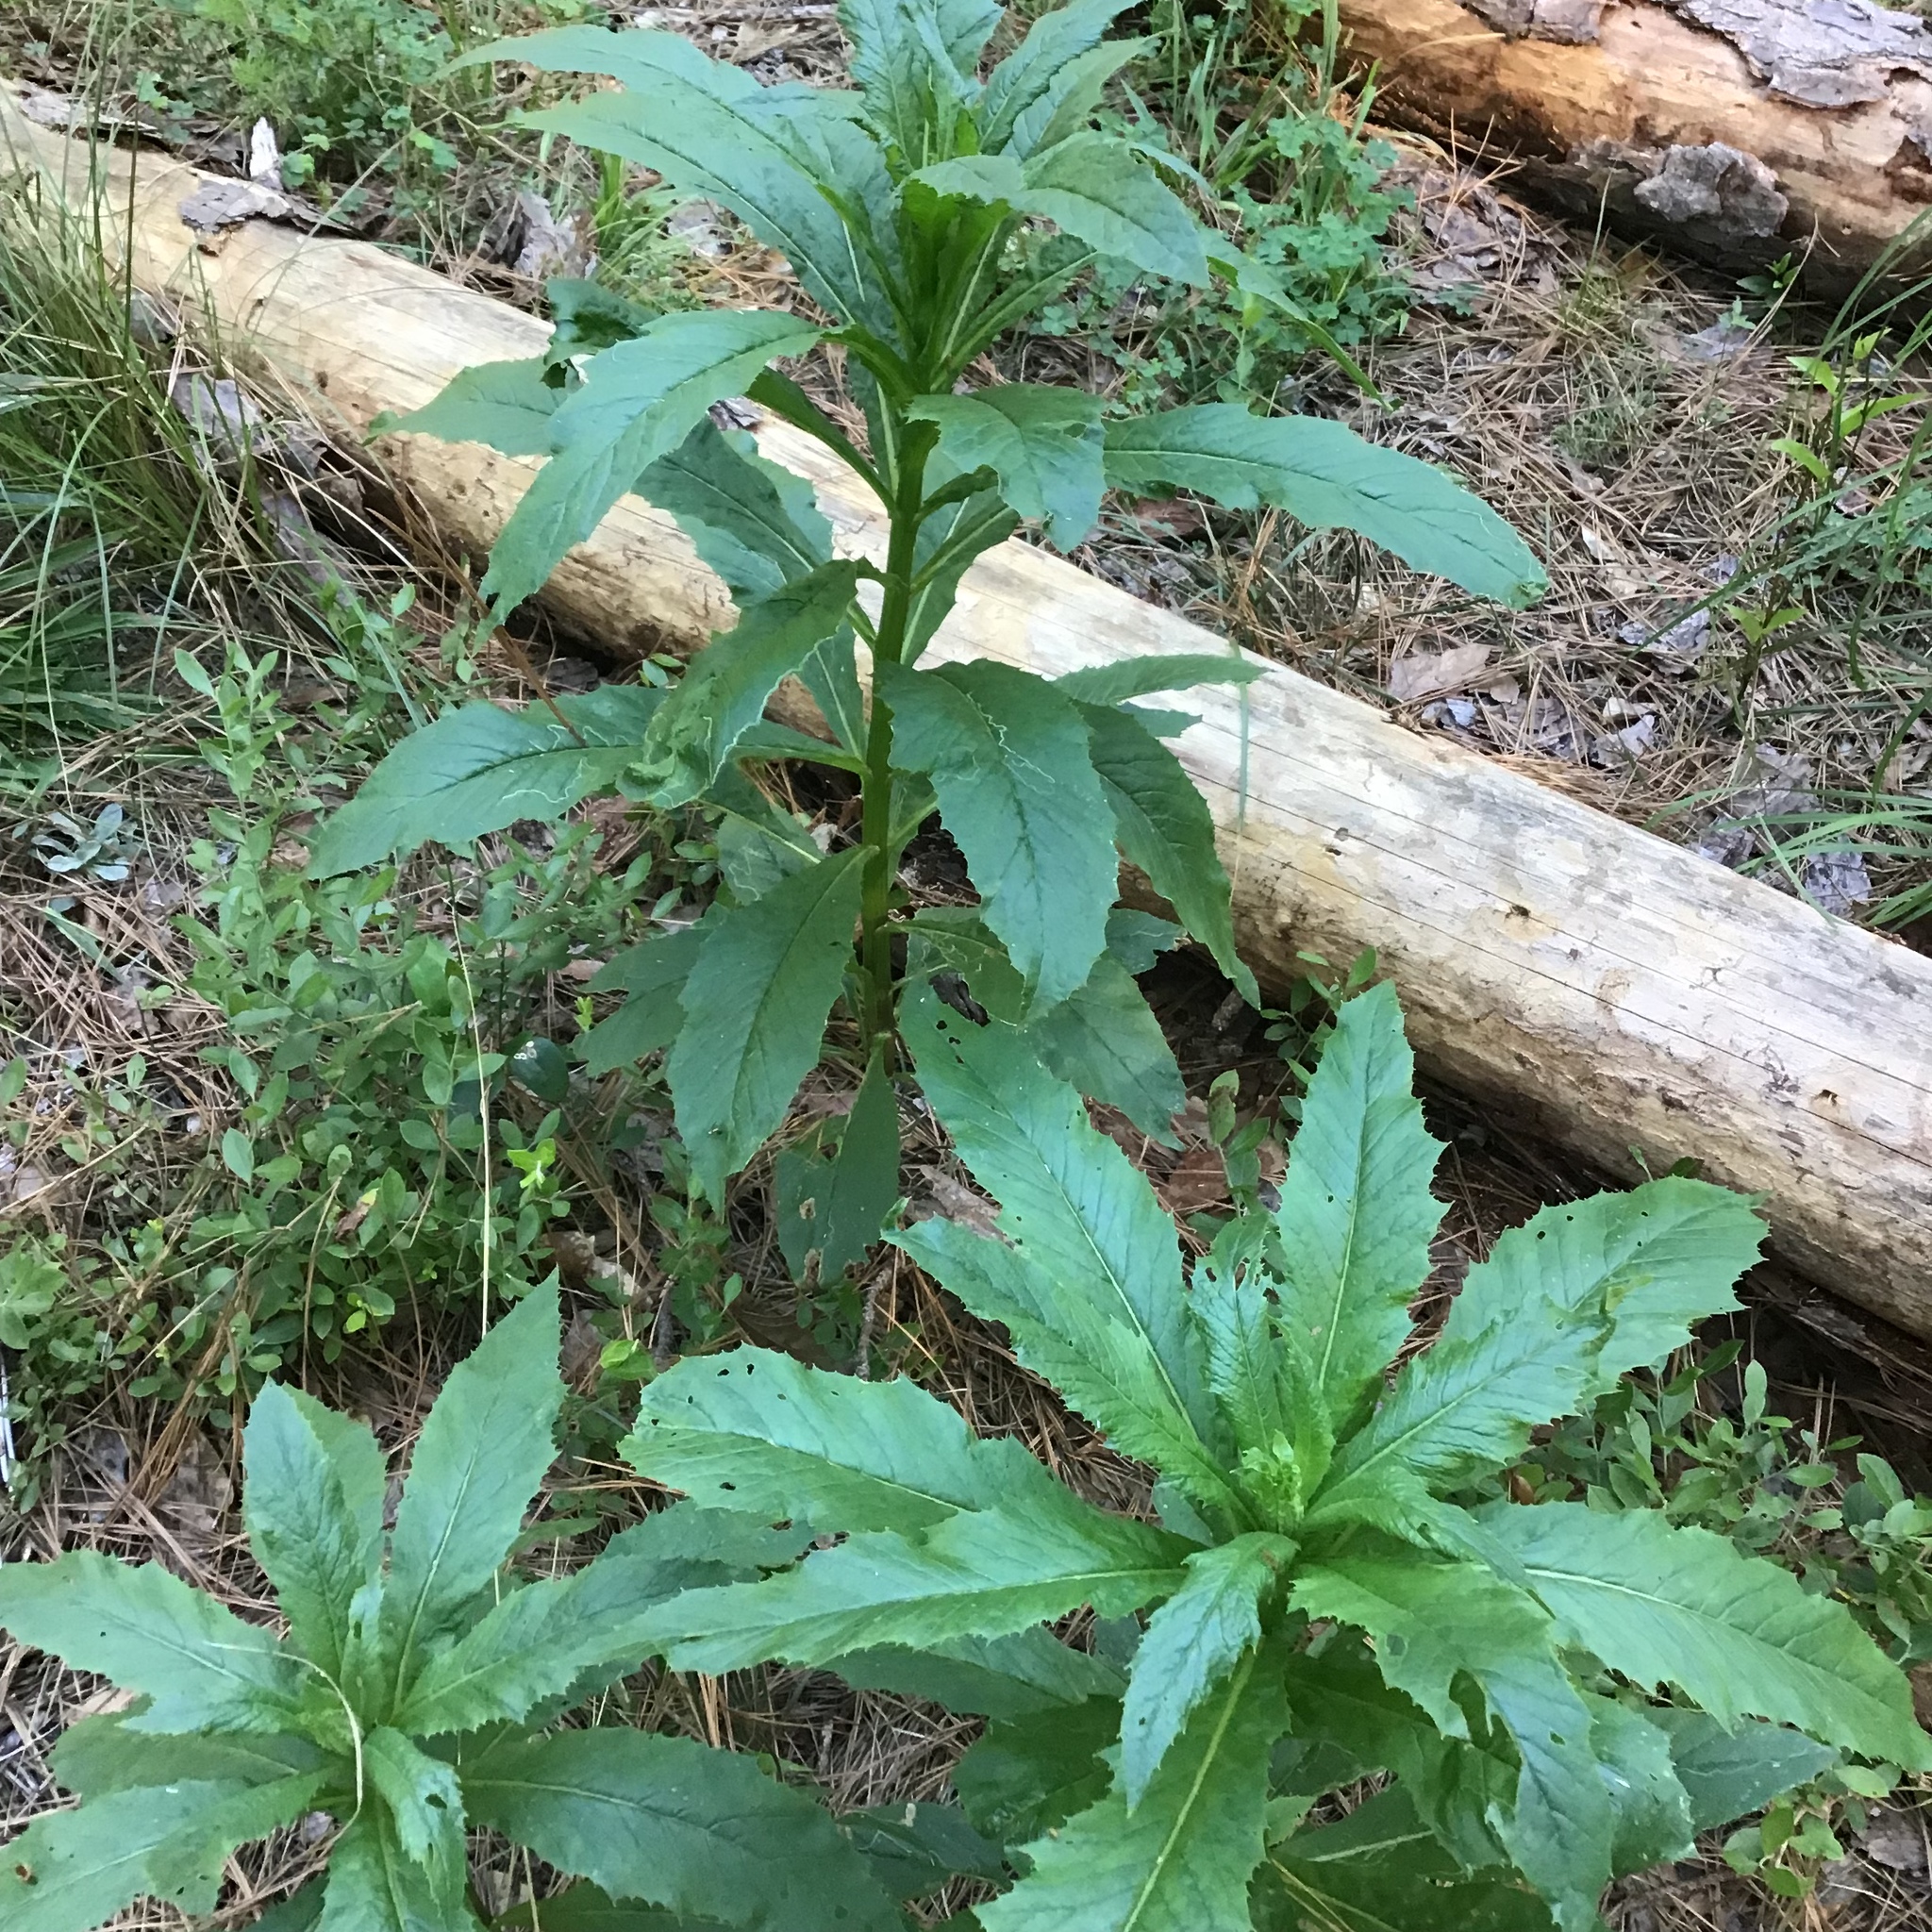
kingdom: Plantae
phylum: Tracheophyta
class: Magnoliopsida
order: Asterales
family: Asteraceae
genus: Erechtites
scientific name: Erechtites hieraciifolius
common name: American burnweed
